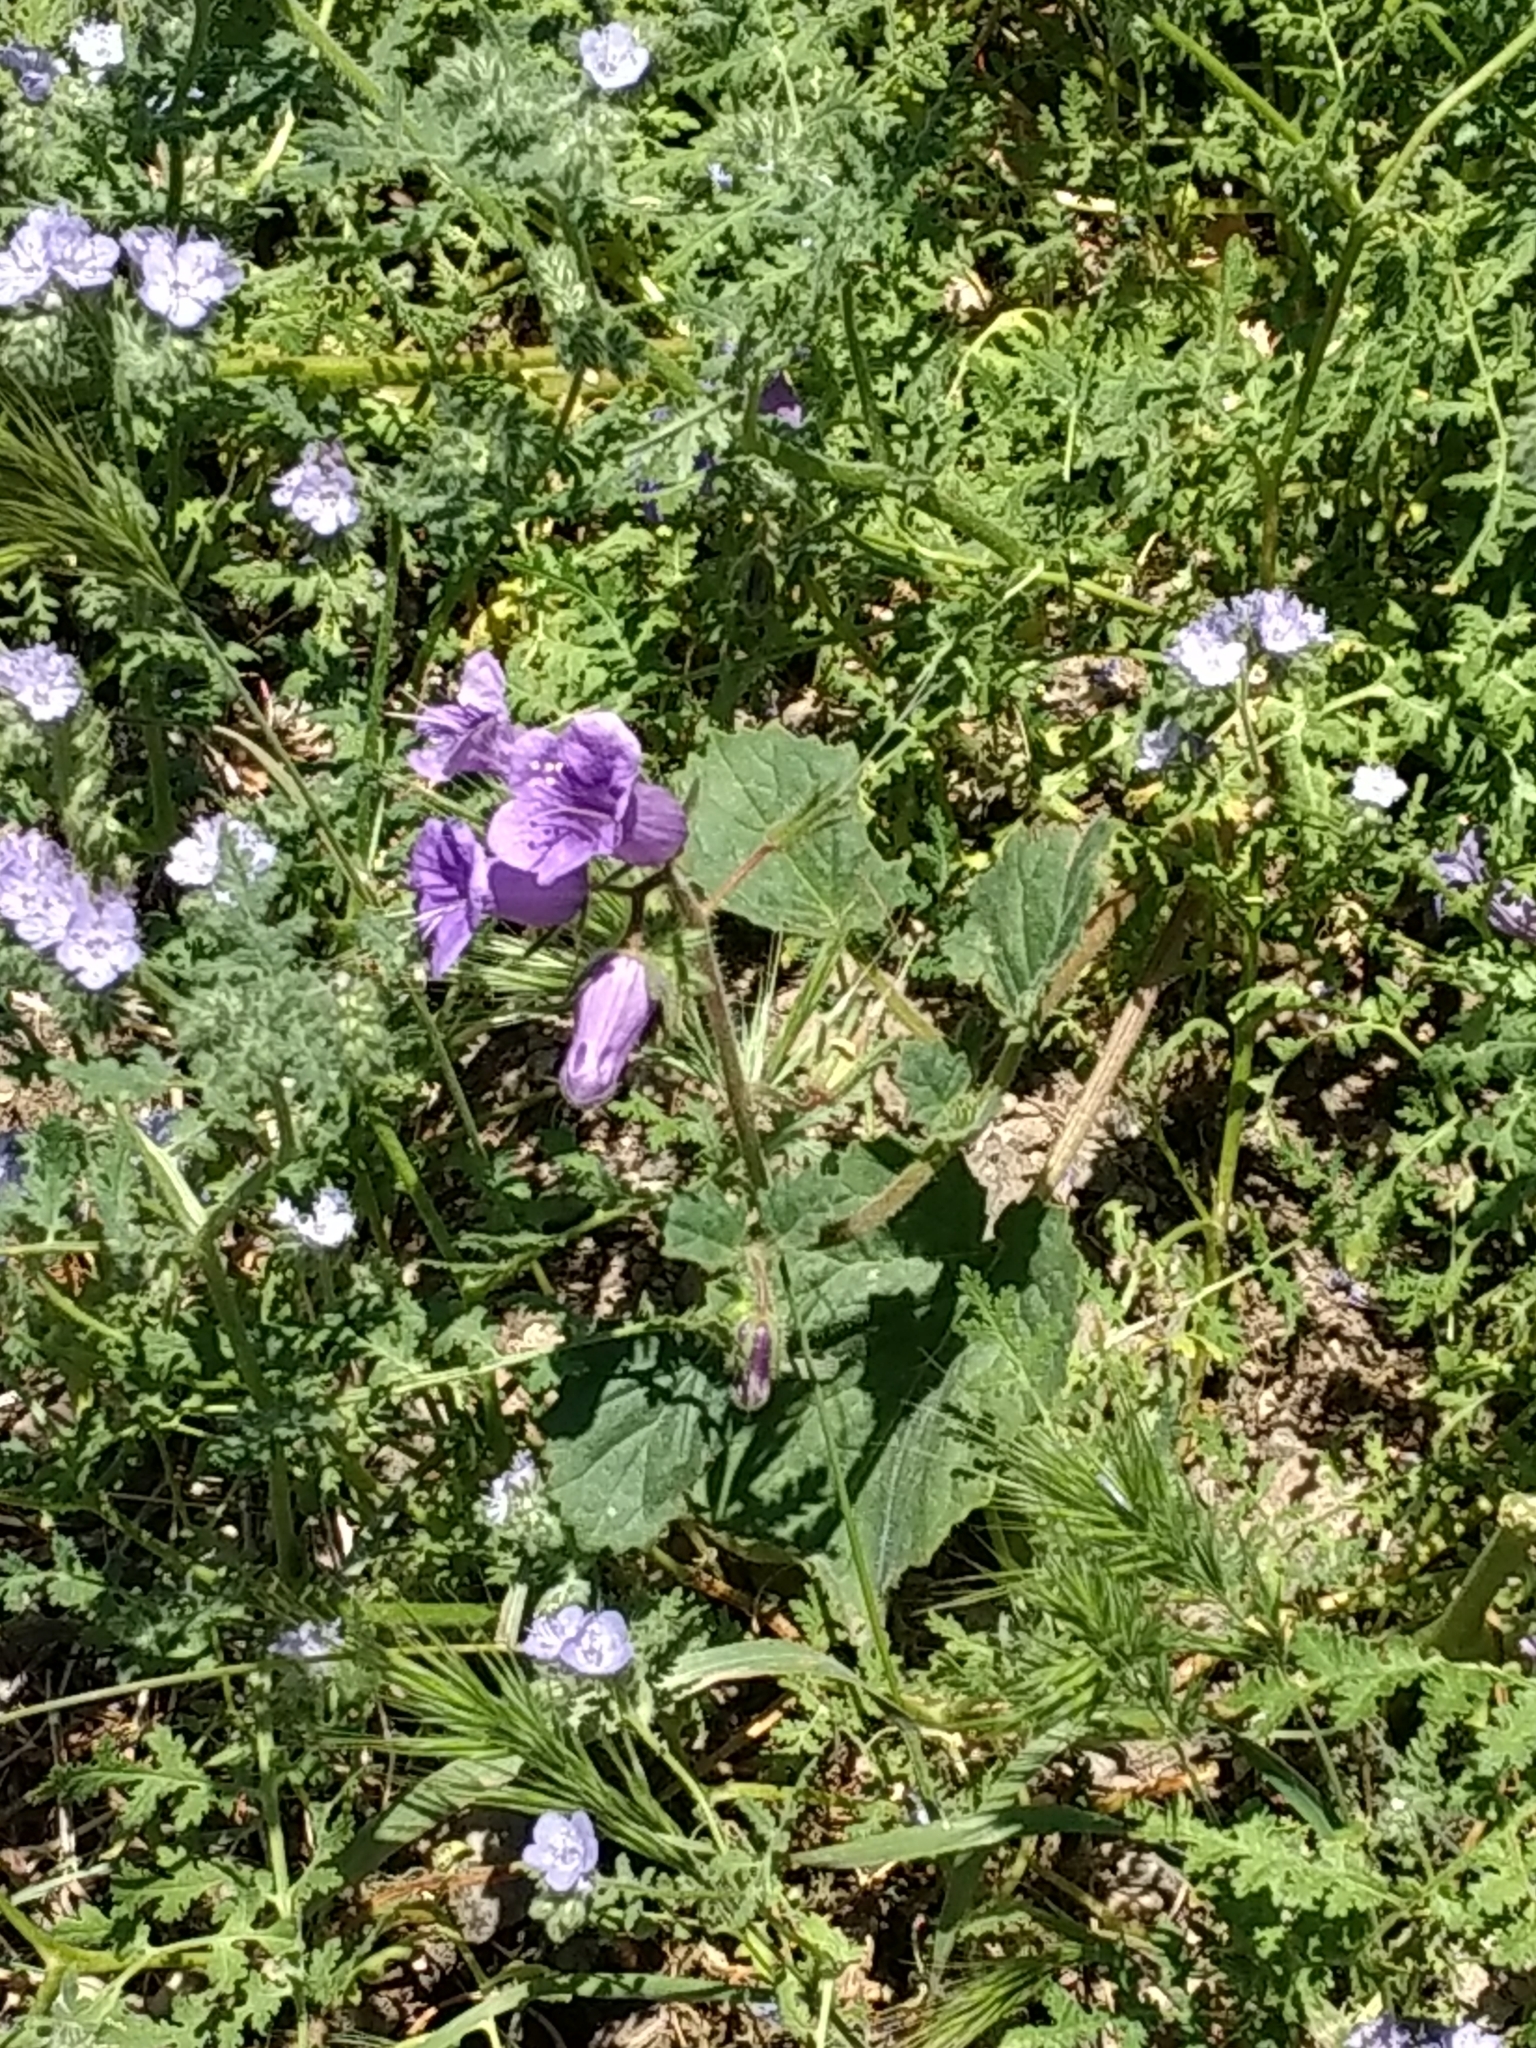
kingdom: Plantae
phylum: Tracheophyta
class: Magnoliopsida
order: Boraginales
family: Hydrophyllaceae
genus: Phacelia
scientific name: Phacelia minor
